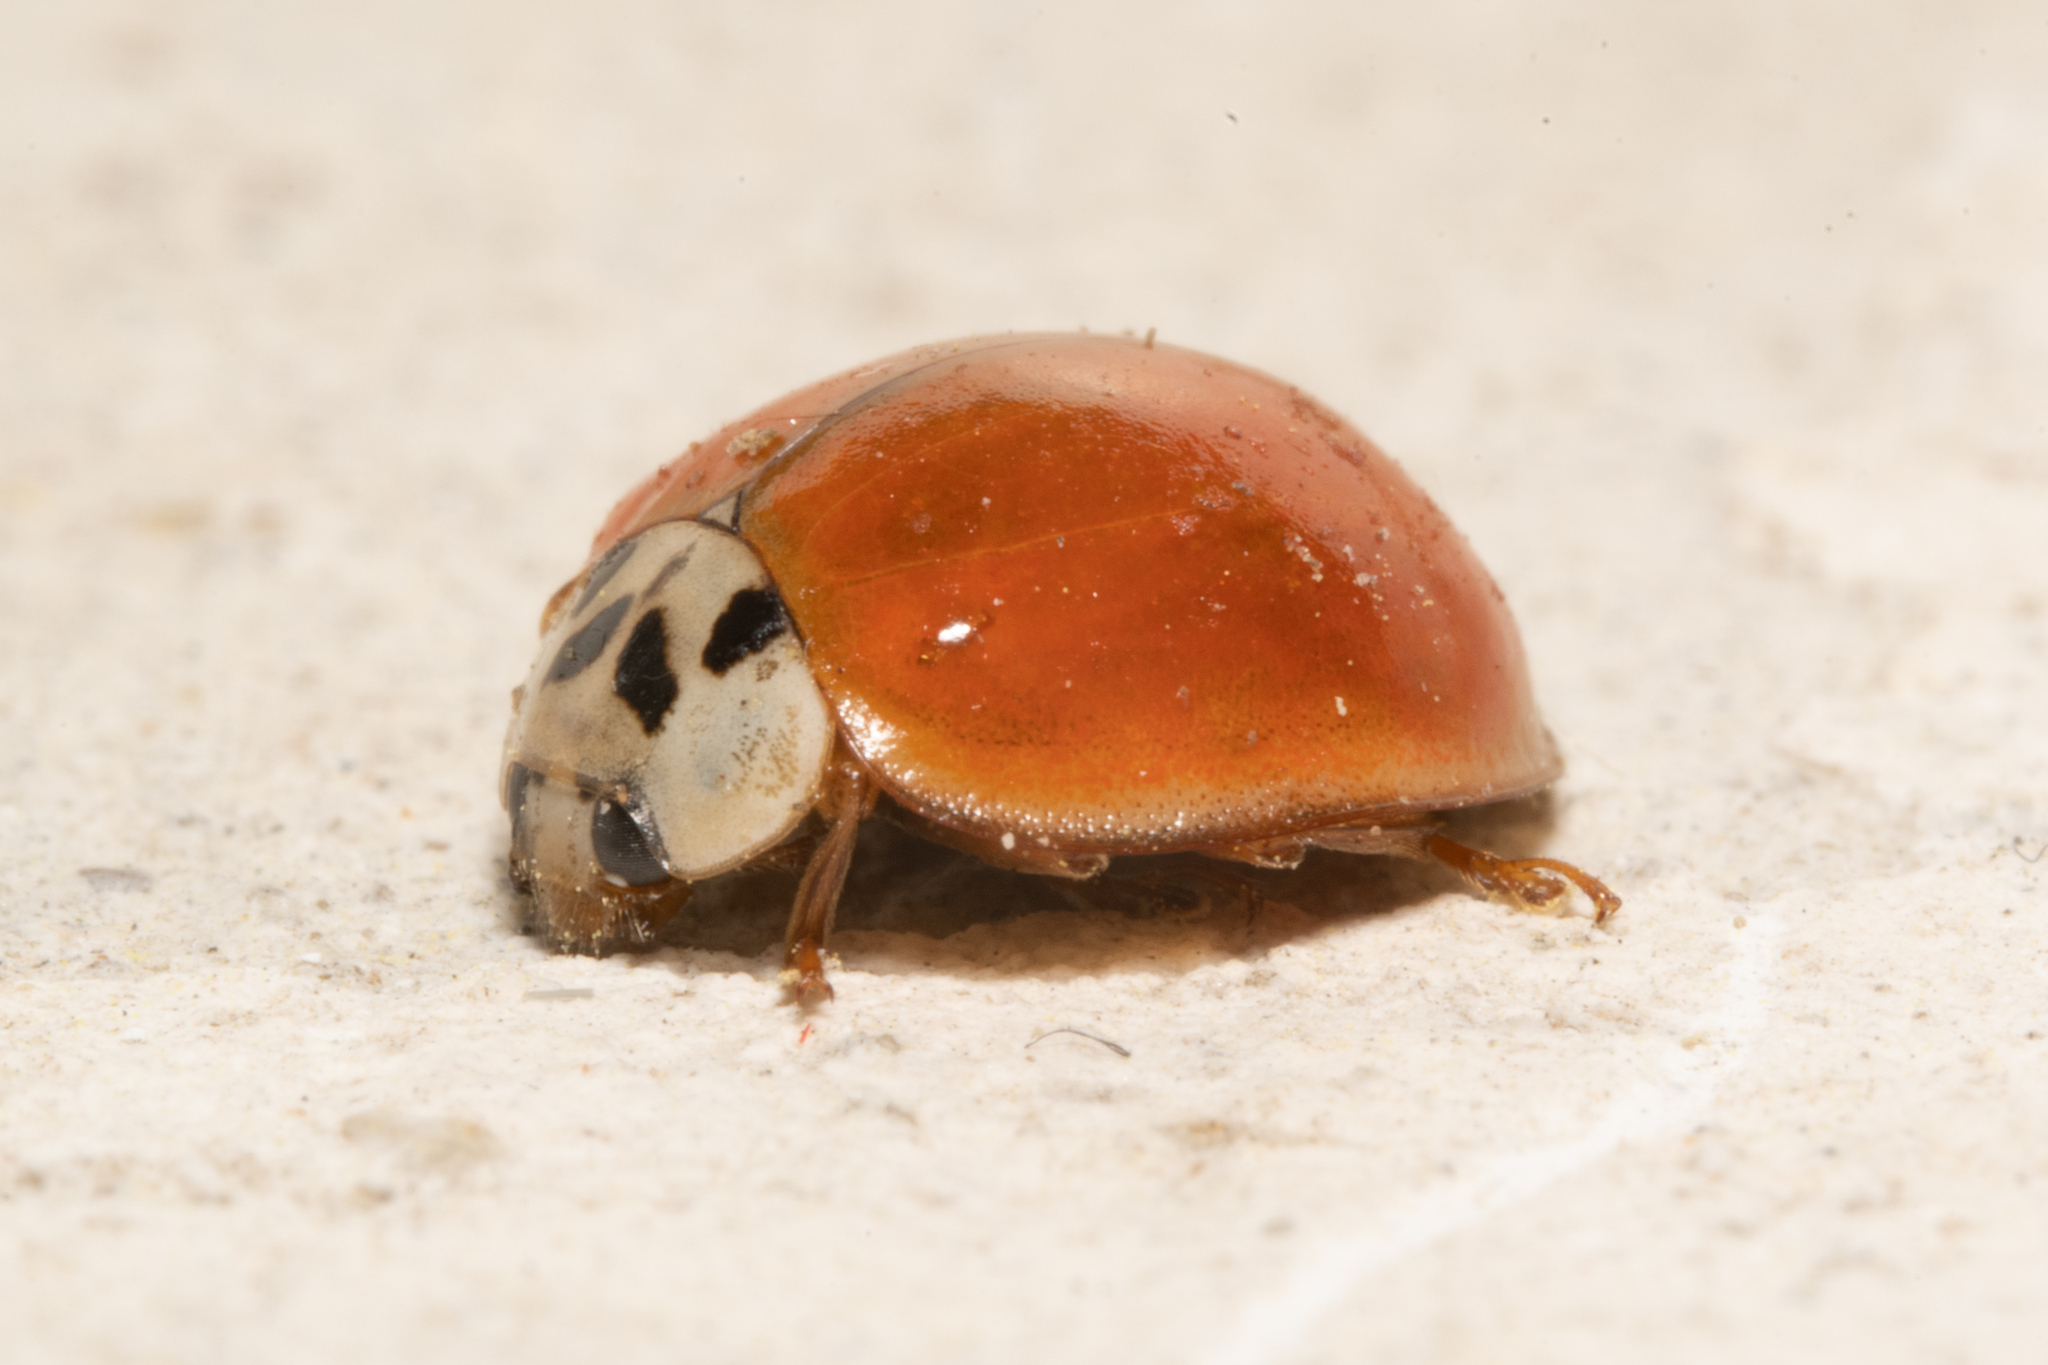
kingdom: Animalia
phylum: Arthropoda
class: Insecta
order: Coleoptera
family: Coccinellidae
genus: Harmonia
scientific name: Harmonia axyridis
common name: Harlequin ladybird
